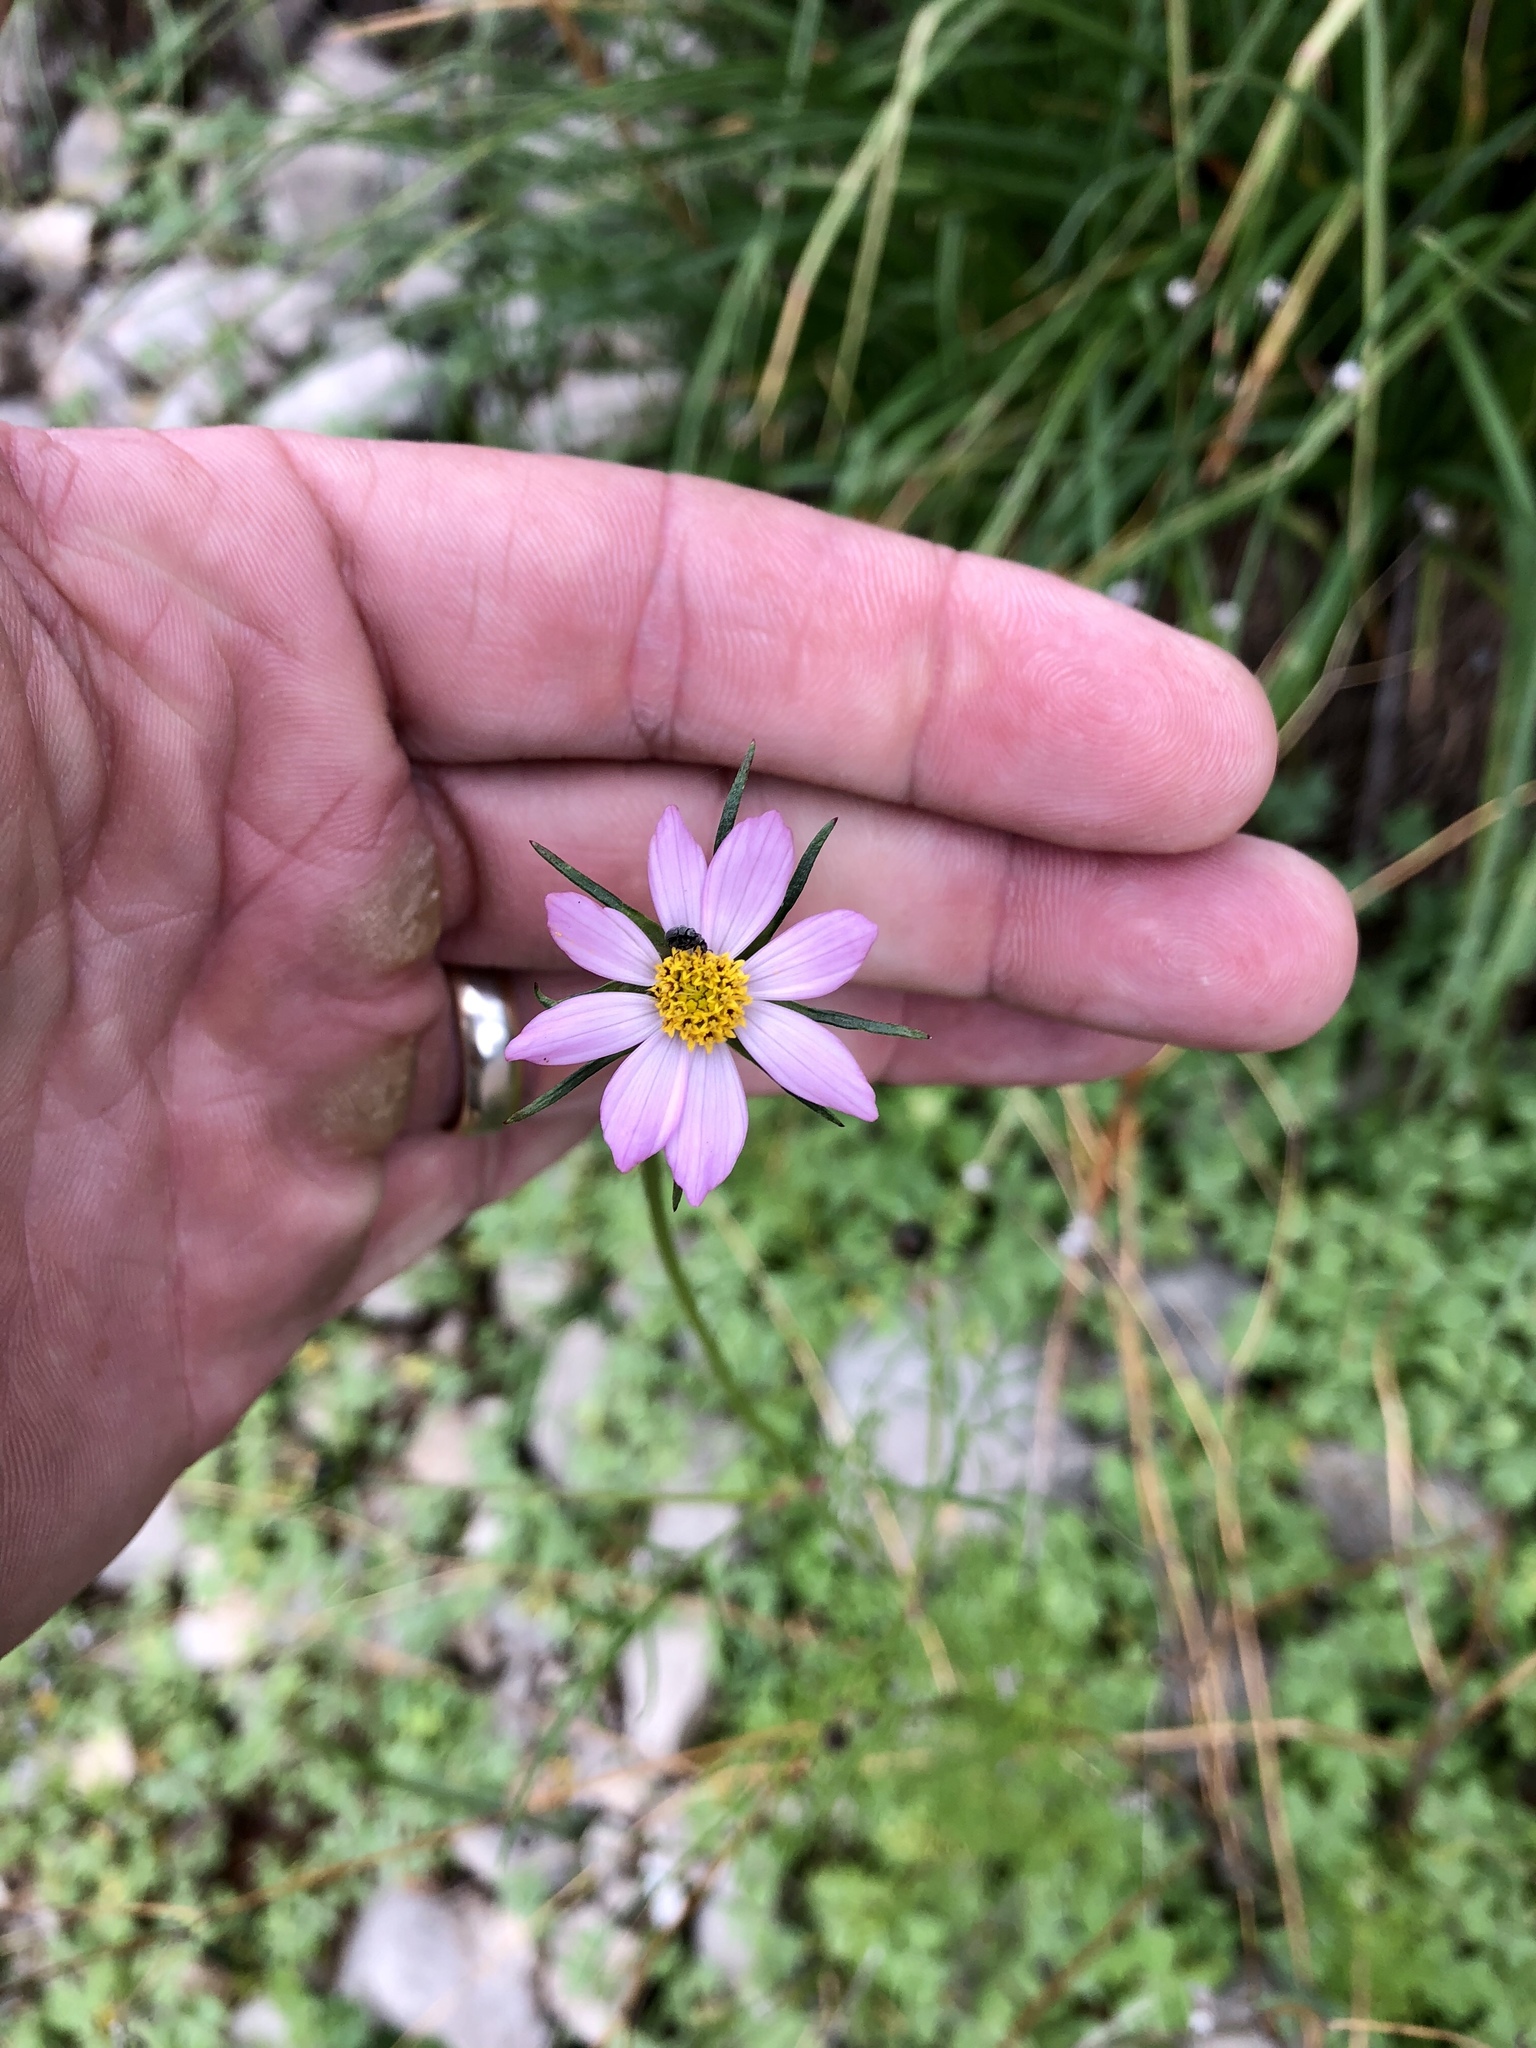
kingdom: Plantae
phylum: Tracheophyta
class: Magnoliopsida
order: Asterales
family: Asteraceae
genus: Cosmos
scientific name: Cosmos parviflorus
